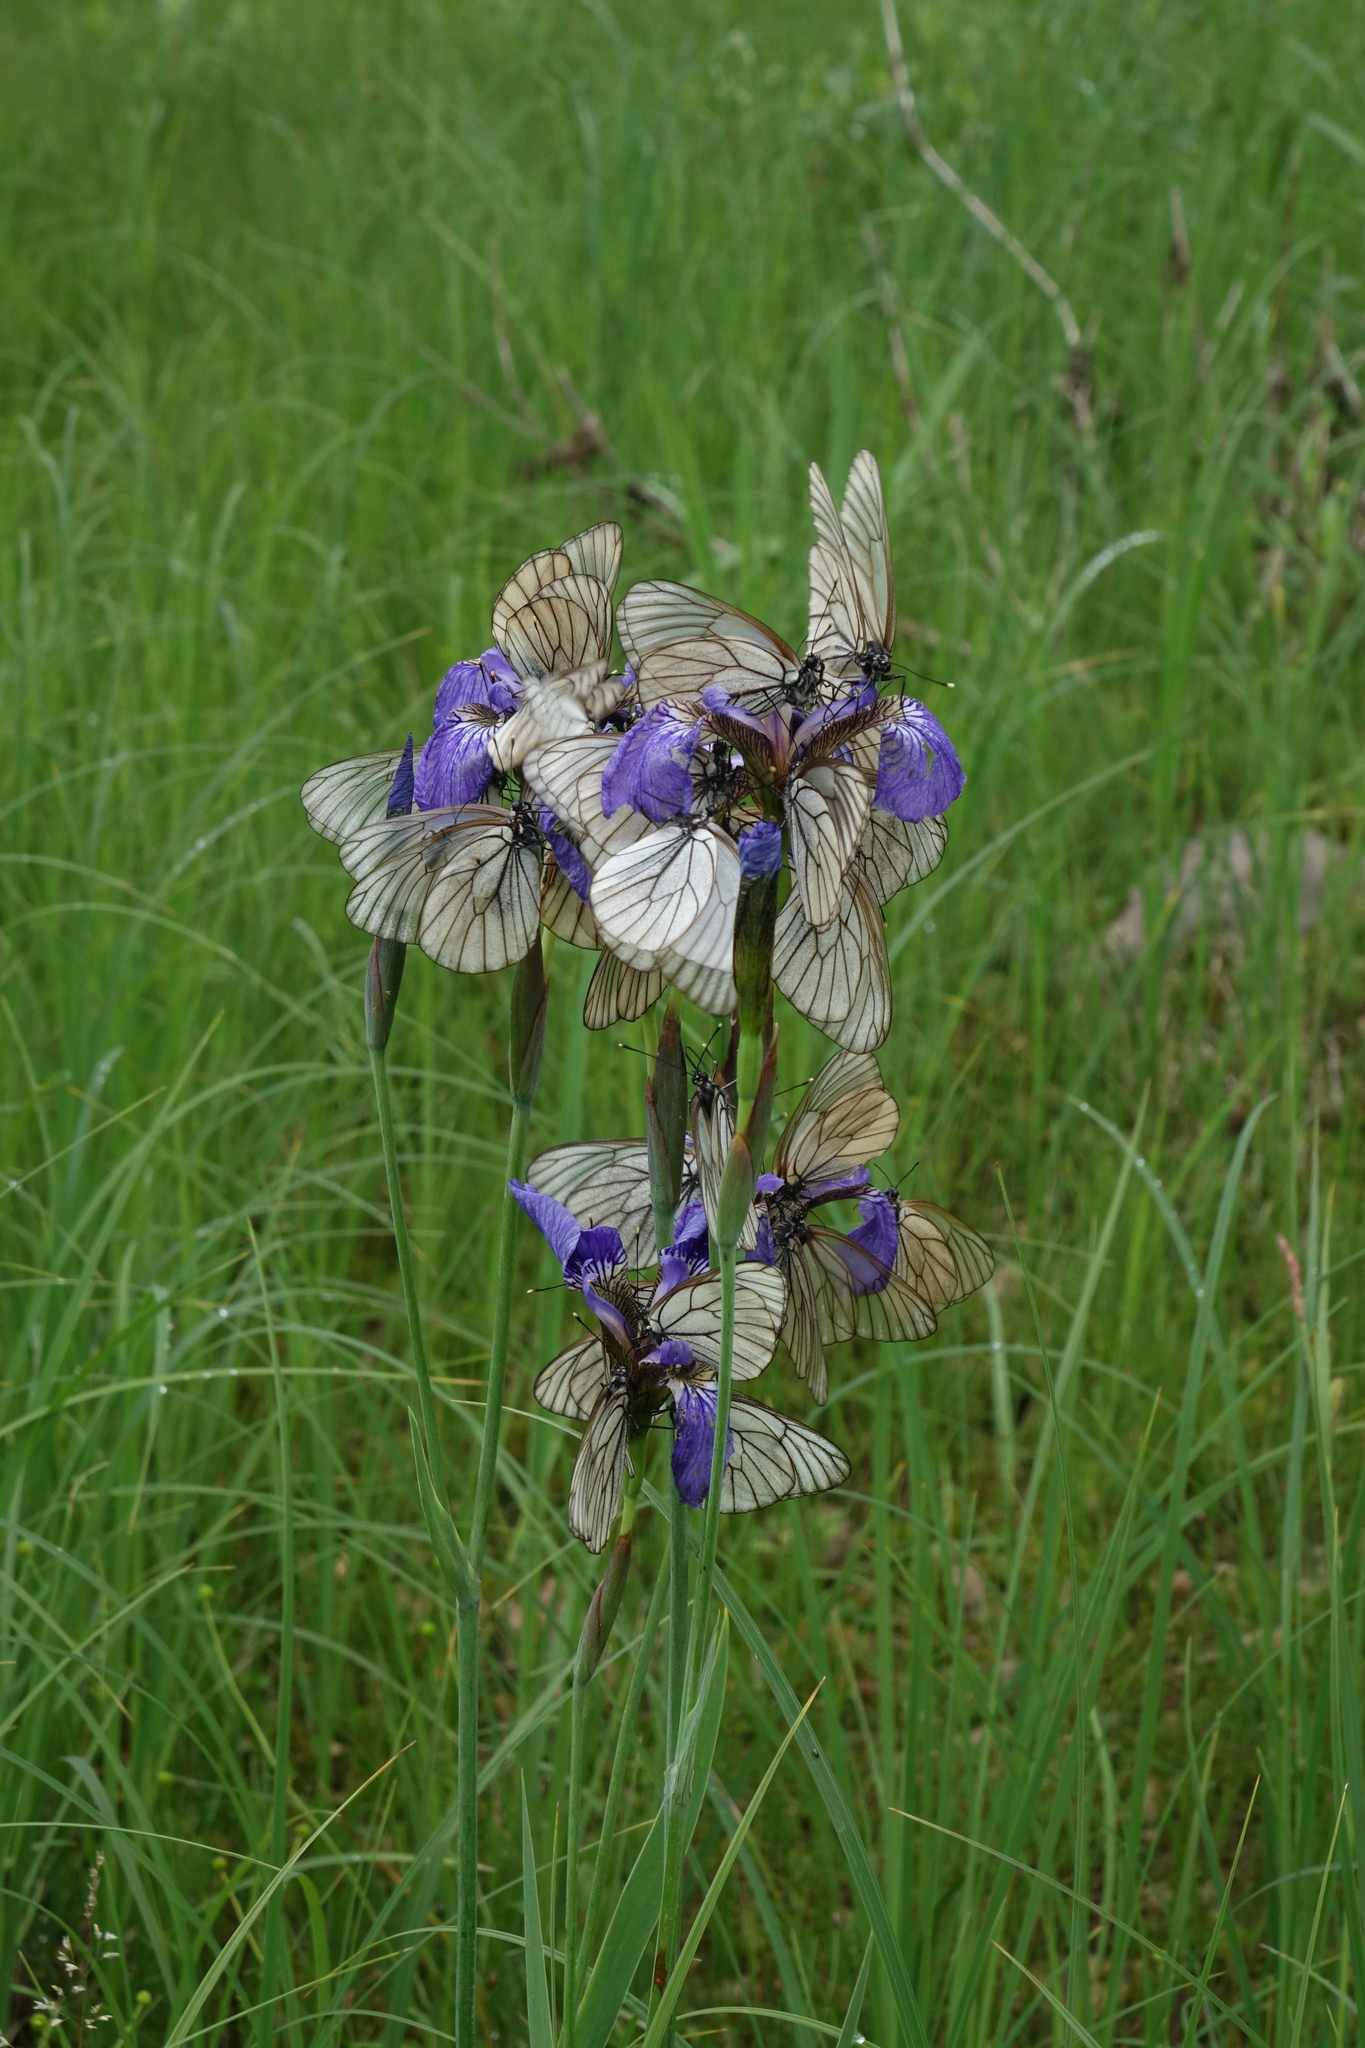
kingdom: Plantae
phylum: Tracheophyta
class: Liliopsida
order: Asparagales
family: Iridaceae
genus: Iris
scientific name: Iris setosa
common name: Arctic blue flag
